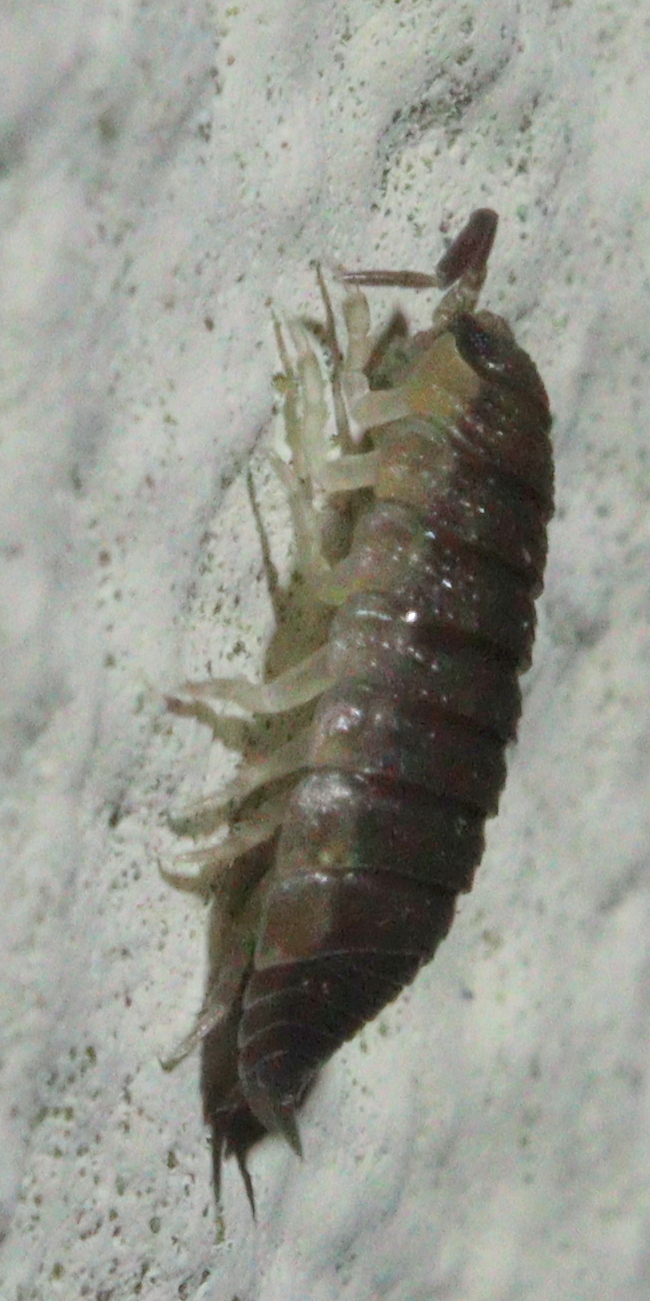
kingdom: Animalia
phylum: Arthropoda
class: Malacostraca
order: Isopoda
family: Porcellionidae
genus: Porcellio
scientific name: Porcellio scaber
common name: Common rough woodlouse
